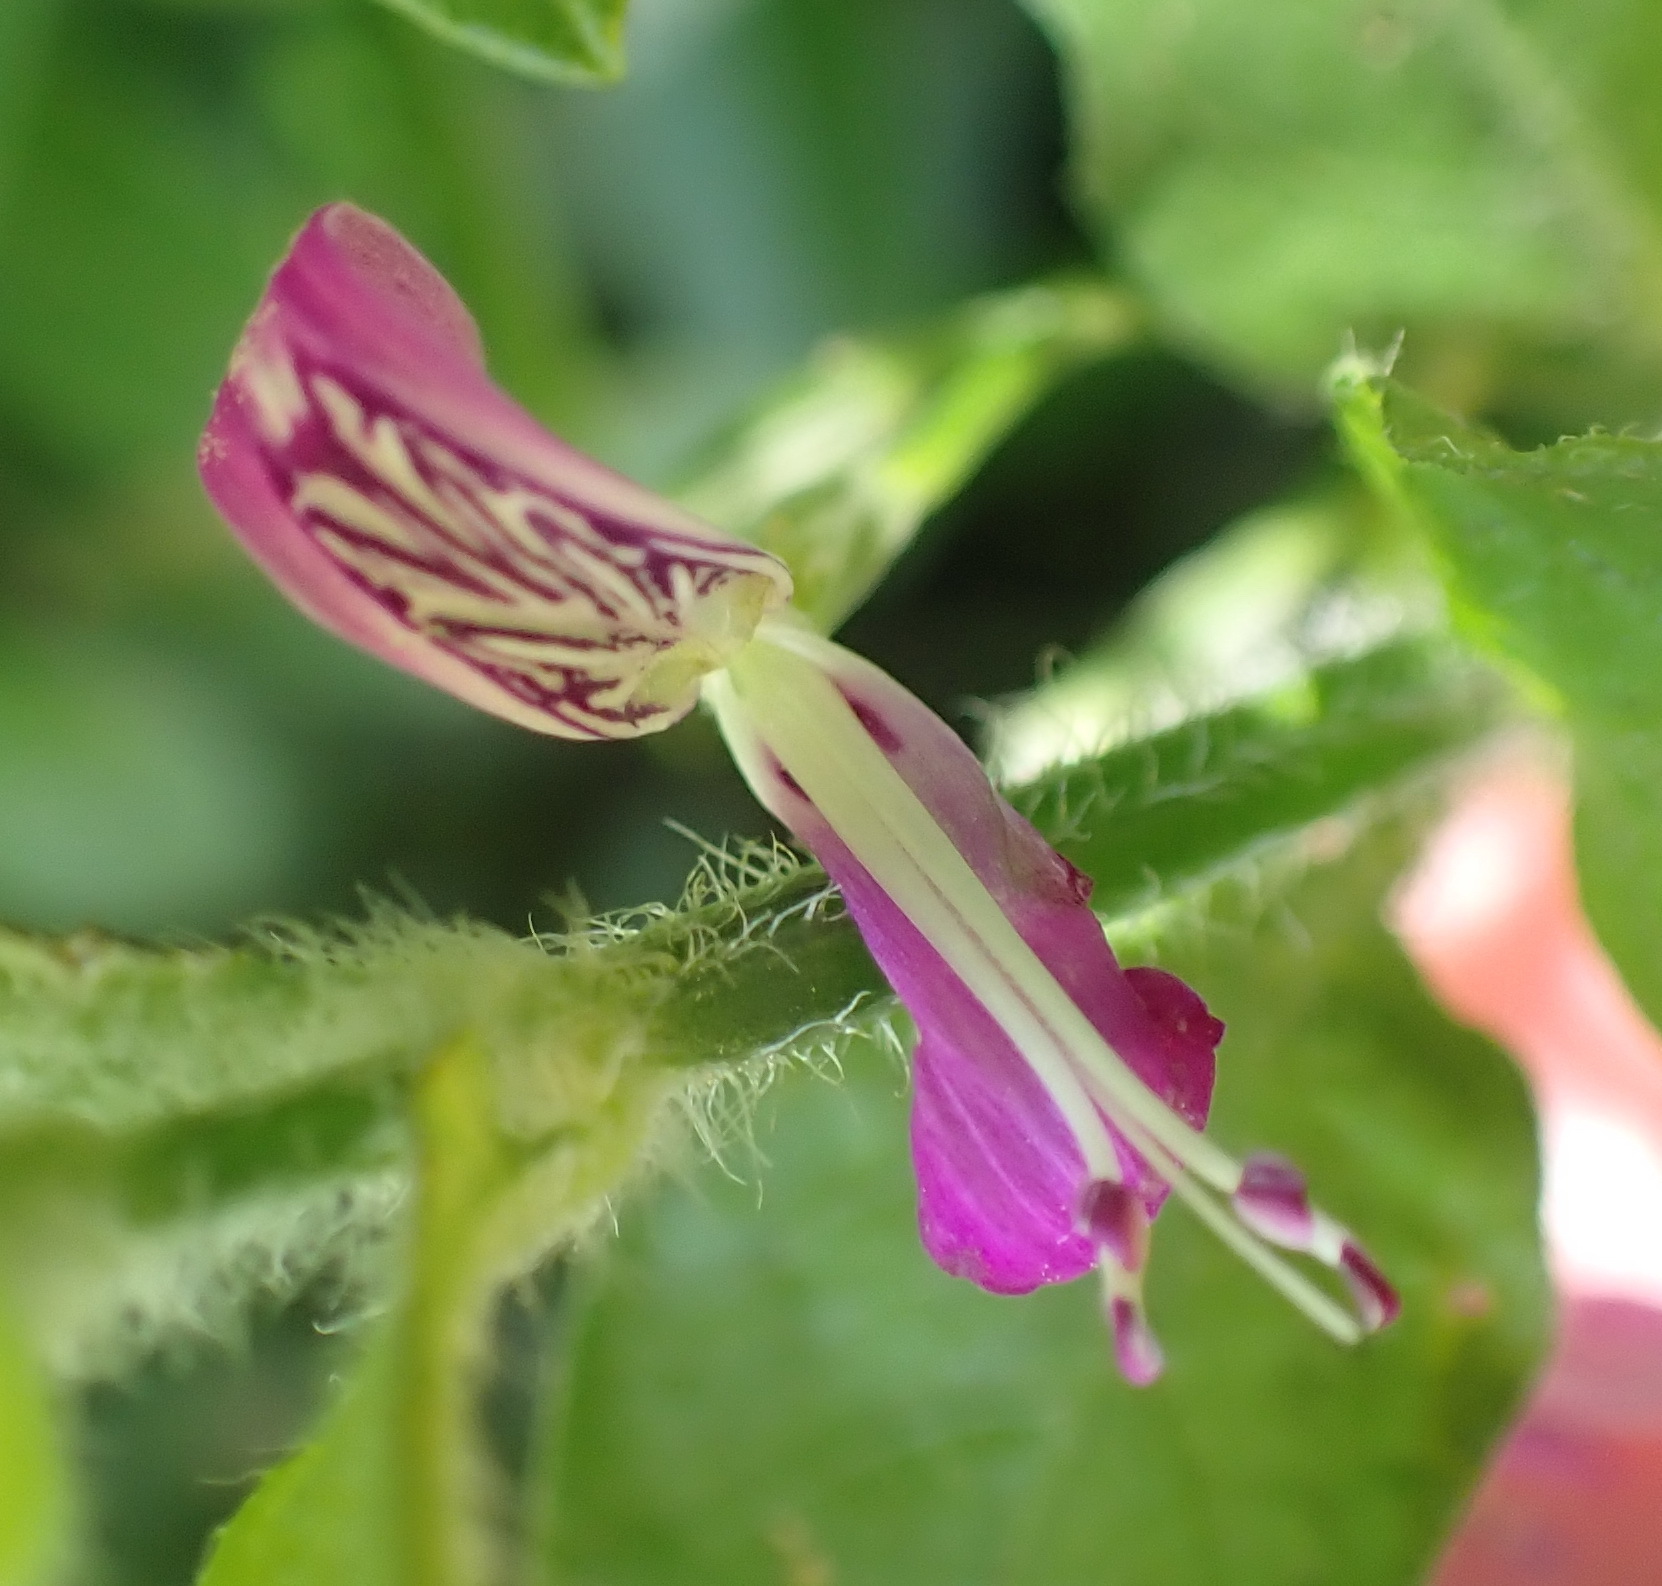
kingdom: Plantae
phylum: Tracheophyta
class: Magnoliopsida
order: Lamiales
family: Acanthaceae
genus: Dicliptera
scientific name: Dicliptera cernua
